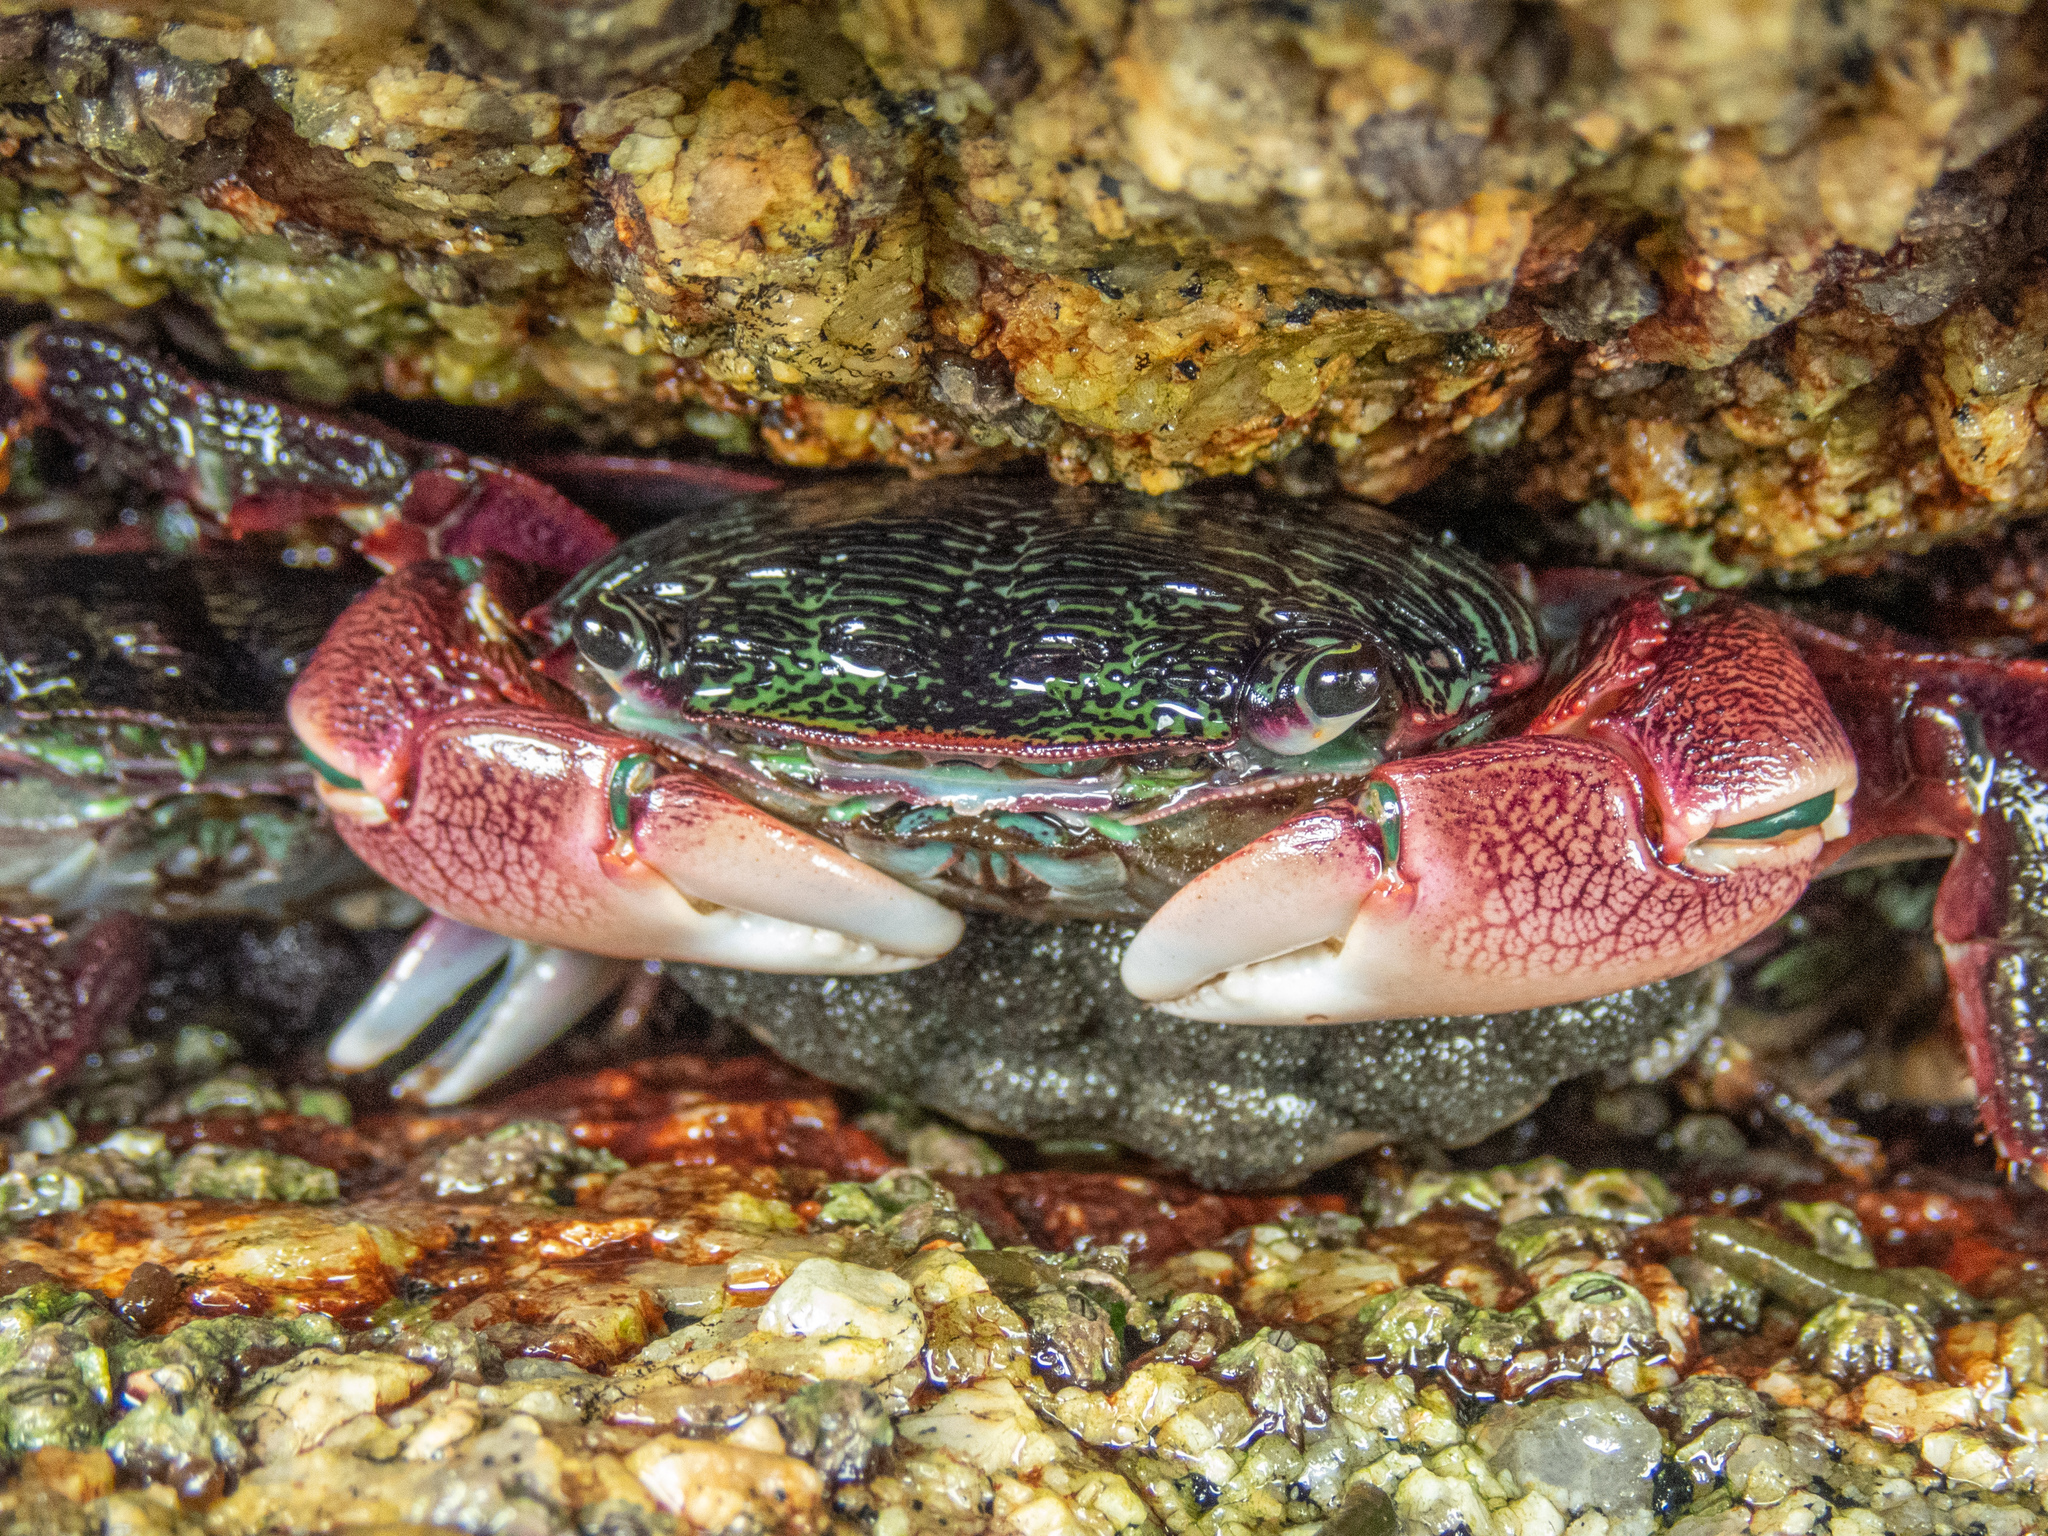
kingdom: Animalia
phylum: Arthropoda
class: Malacostraca
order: Decapoda
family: Grapsidae
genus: Pachygrapsus
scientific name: Pachygrapsus crassipes
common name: Striped shore crab
